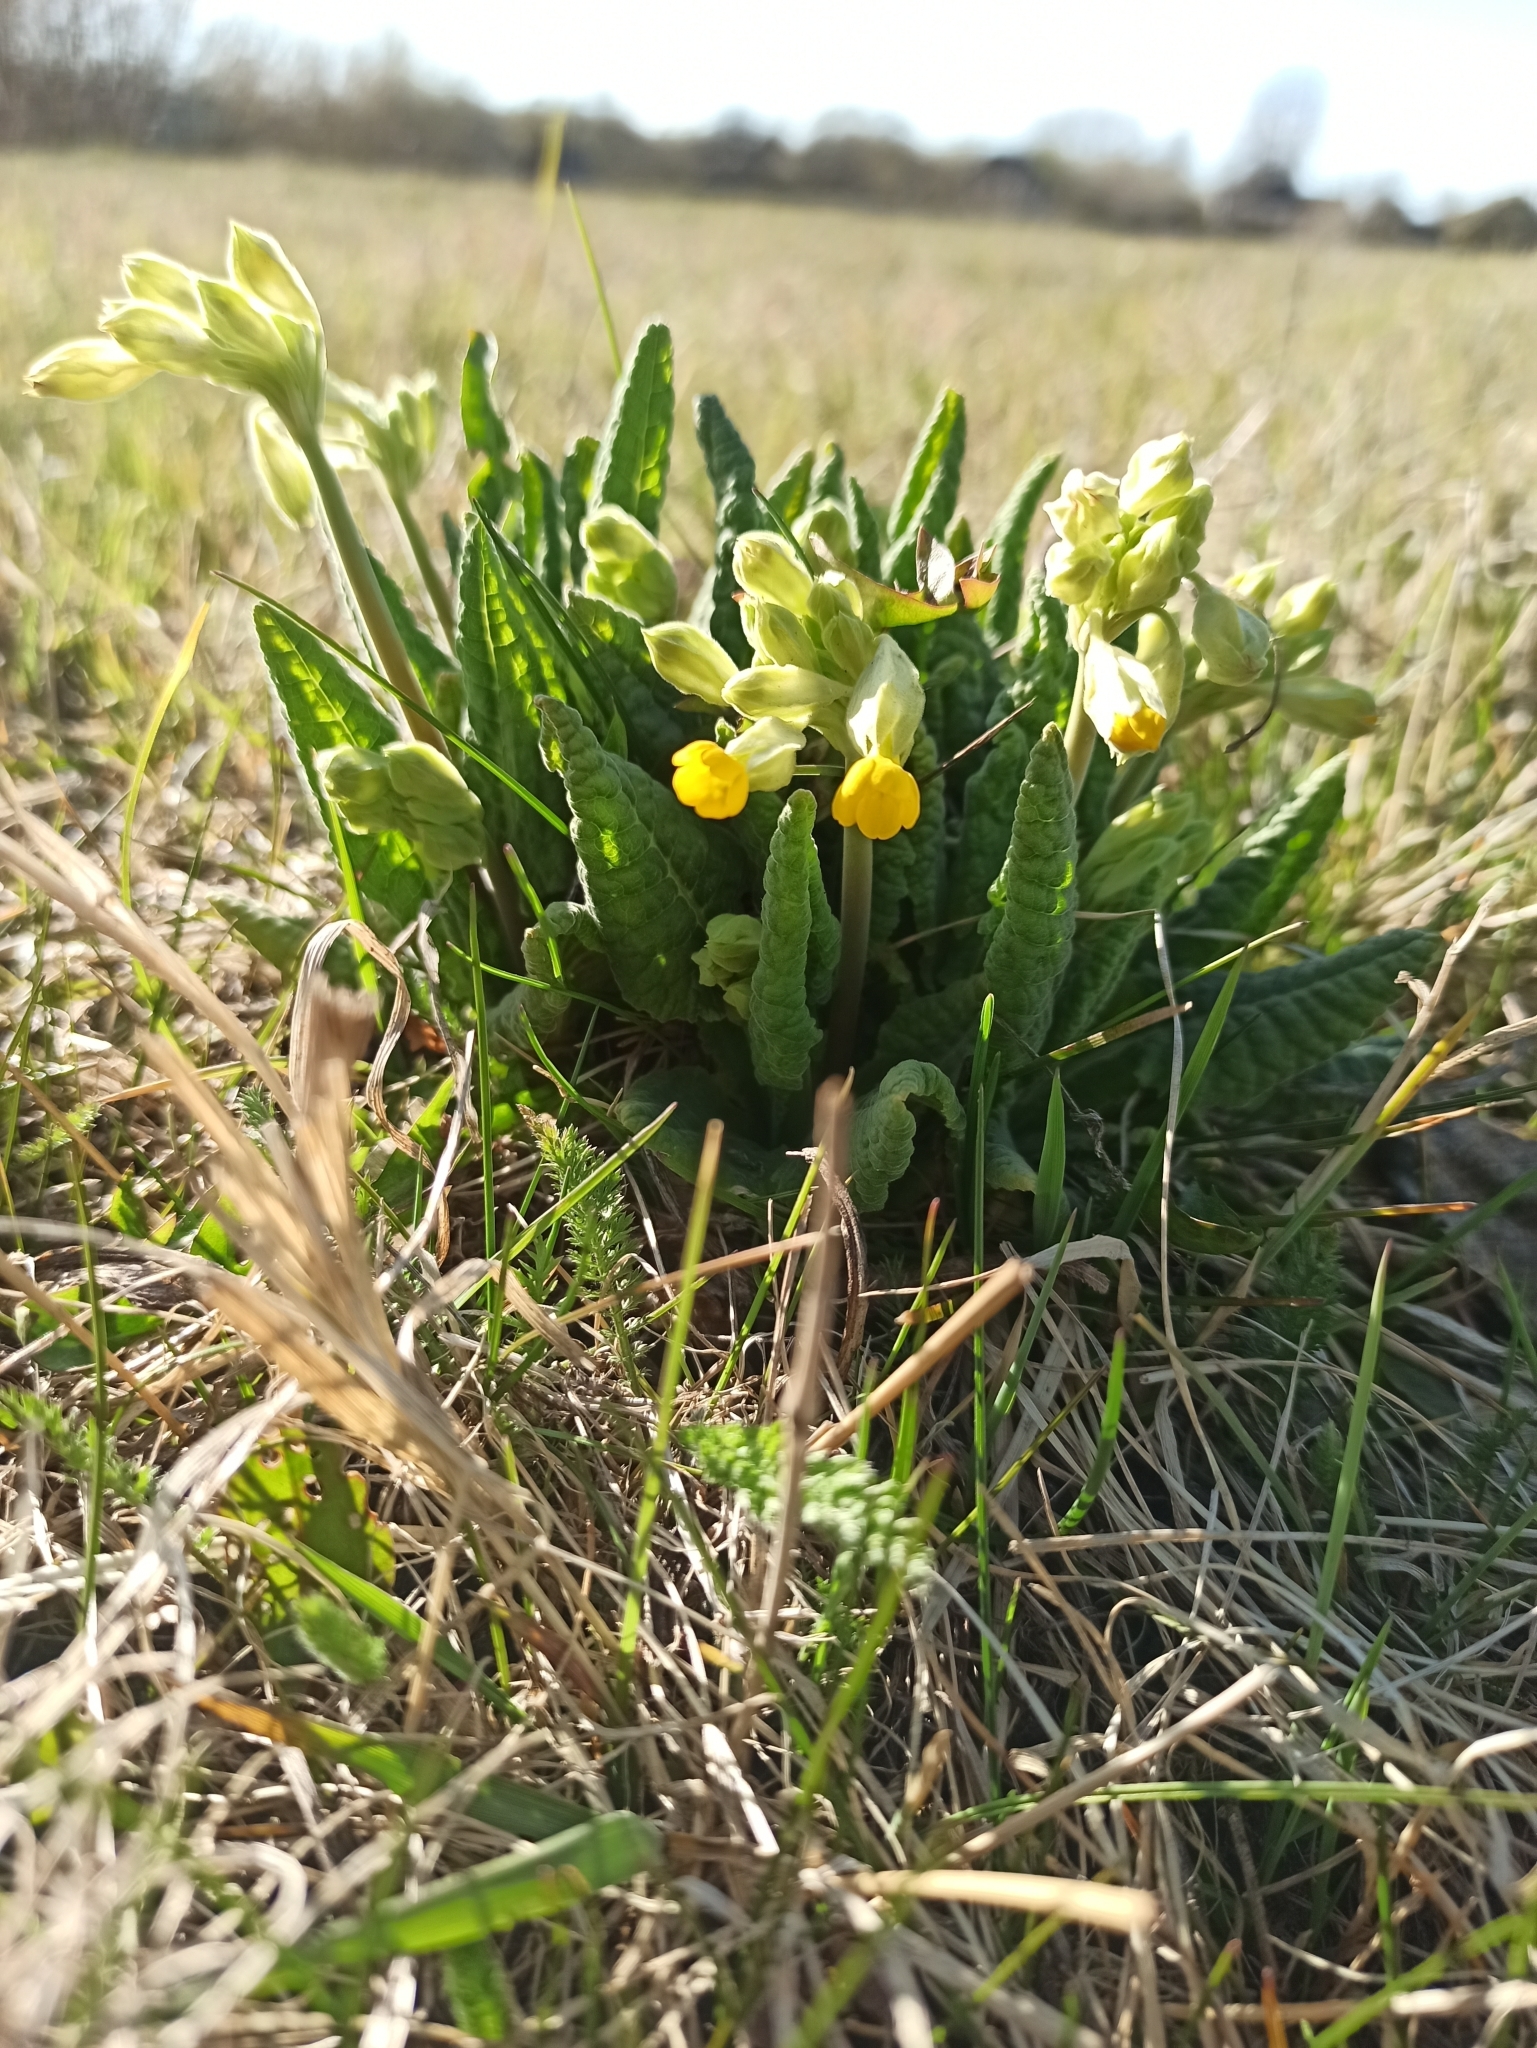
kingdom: Plantae
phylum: Tracheophyta
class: Magnoliopsida
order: Ericales
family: Primulaceae
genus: Primula
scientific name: Primula veris
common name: Cowslip
